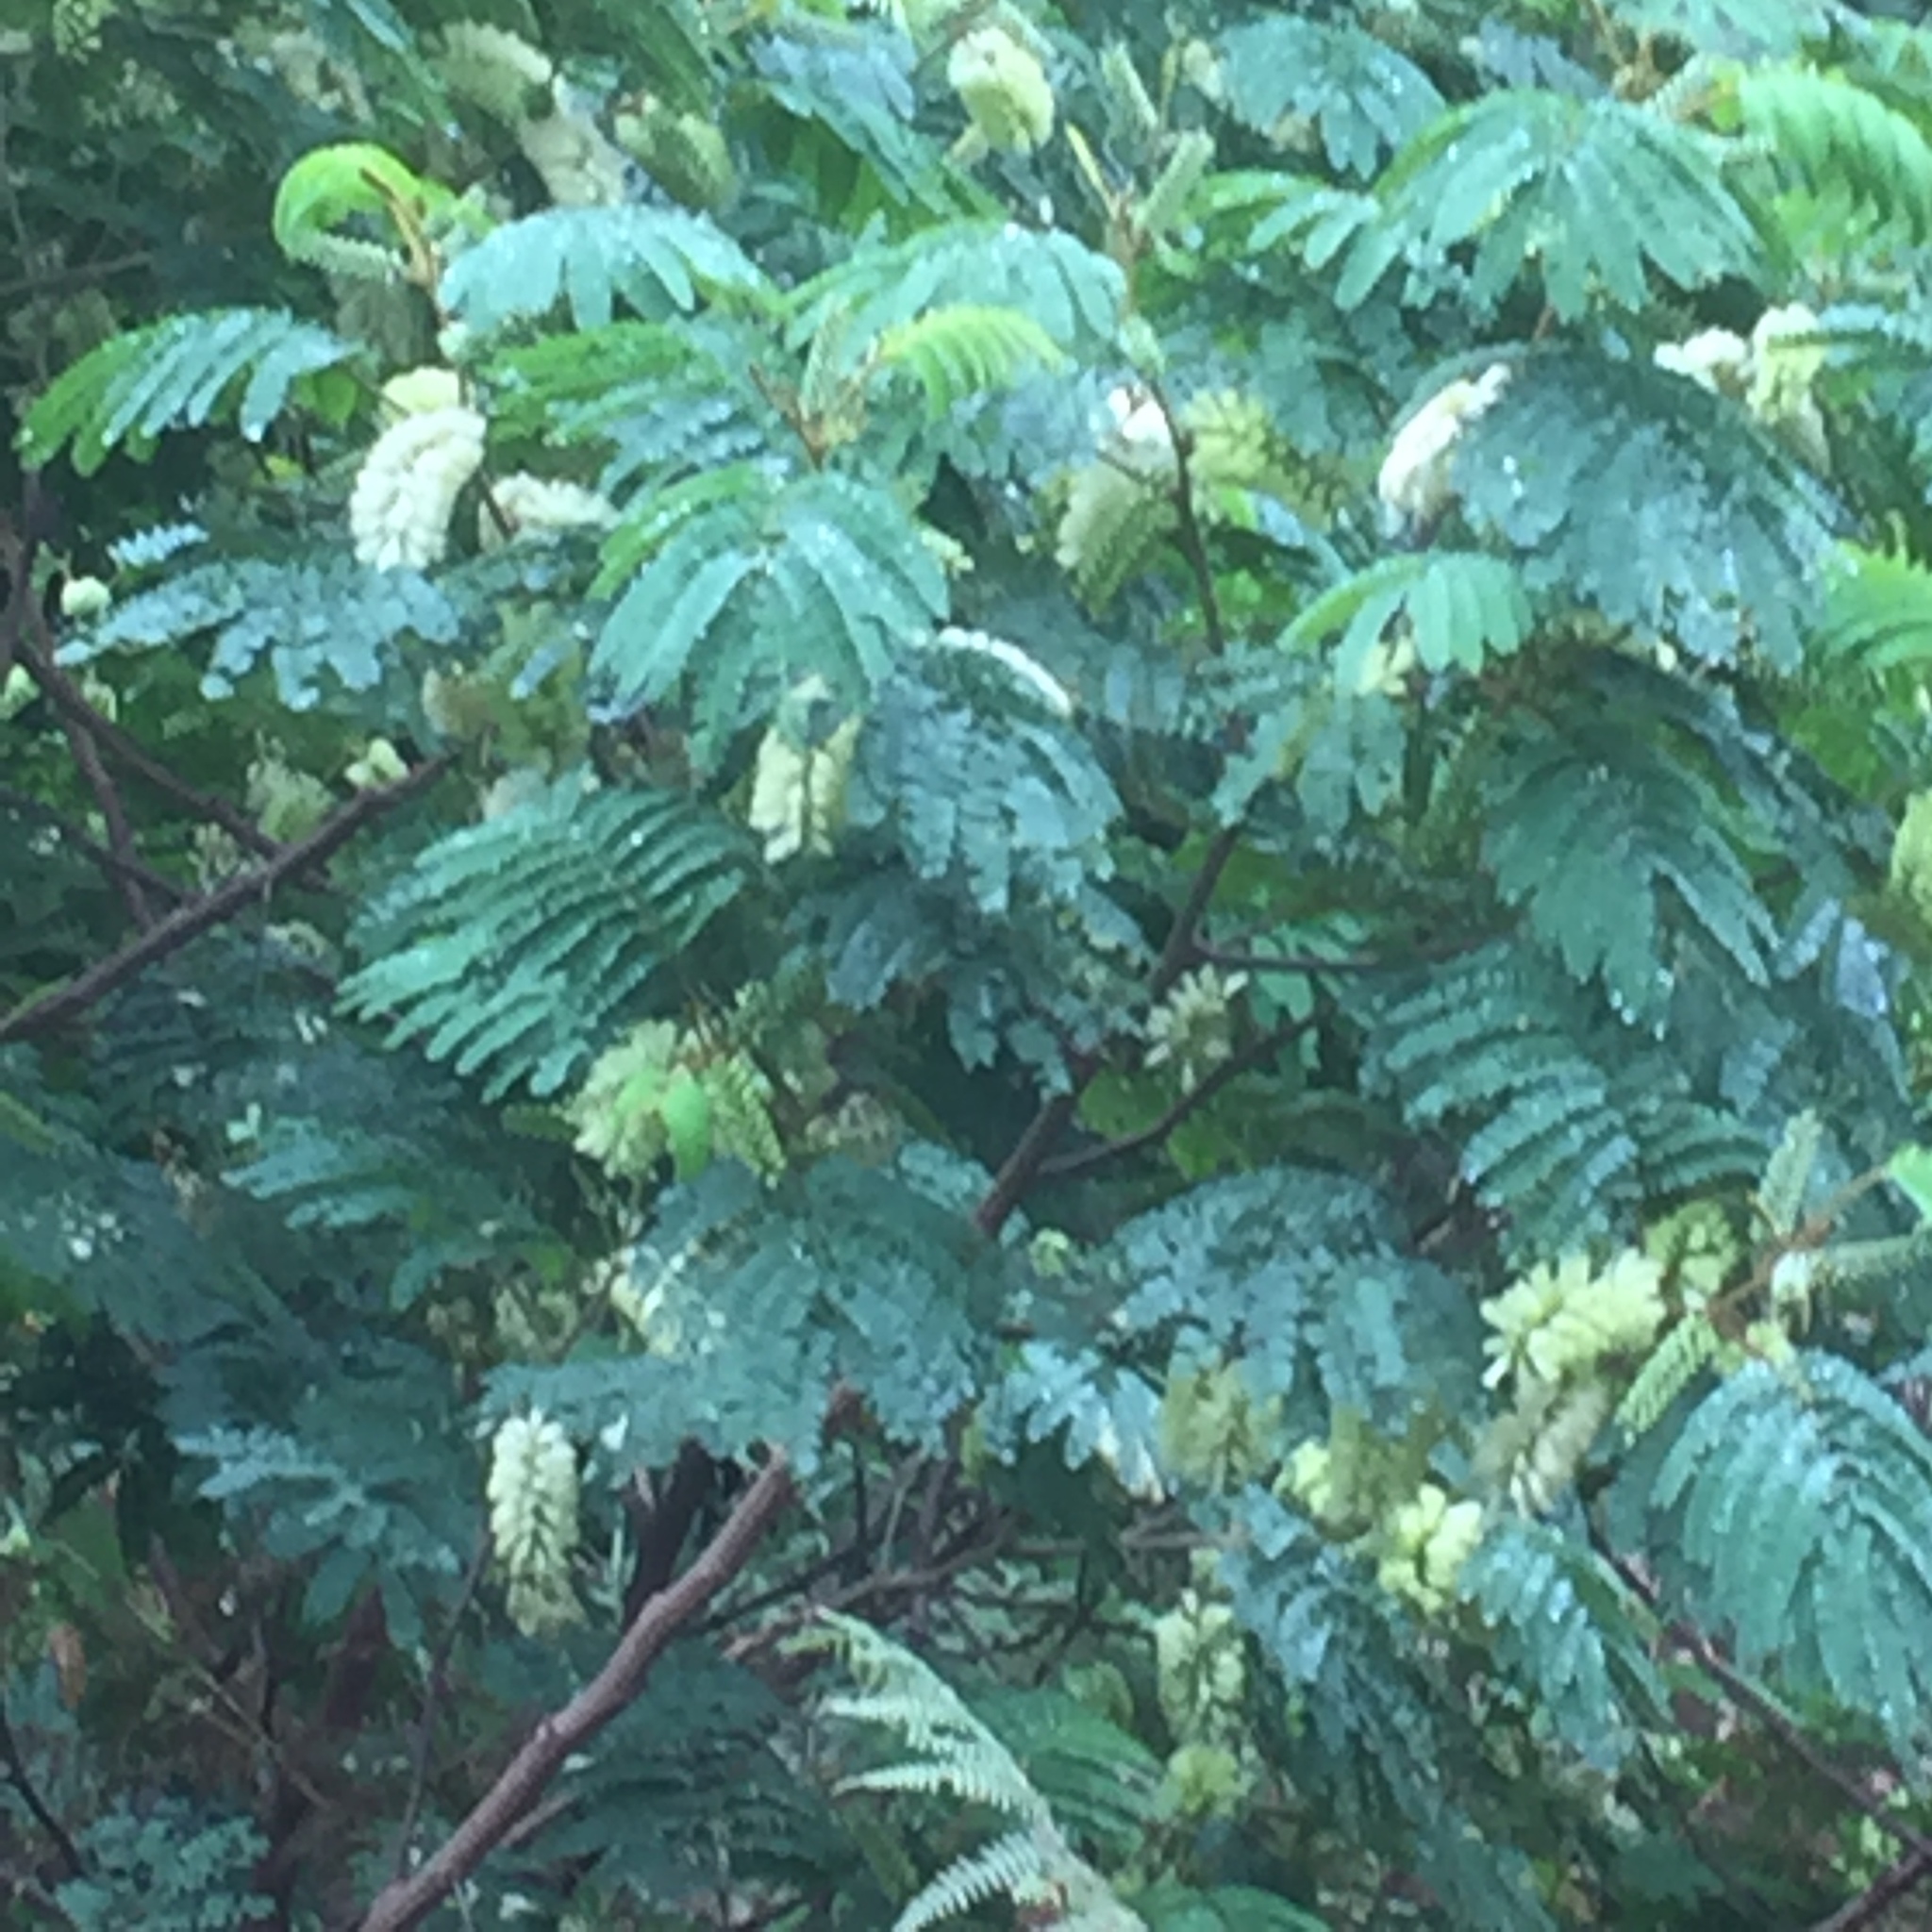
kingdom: Plantae
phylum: Tracheophyta
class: Magnoliopsida
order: Fabales
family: Fabaceae
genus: Paraserianthes
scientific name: Paraserianthes lophantha
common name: Plume albizia
